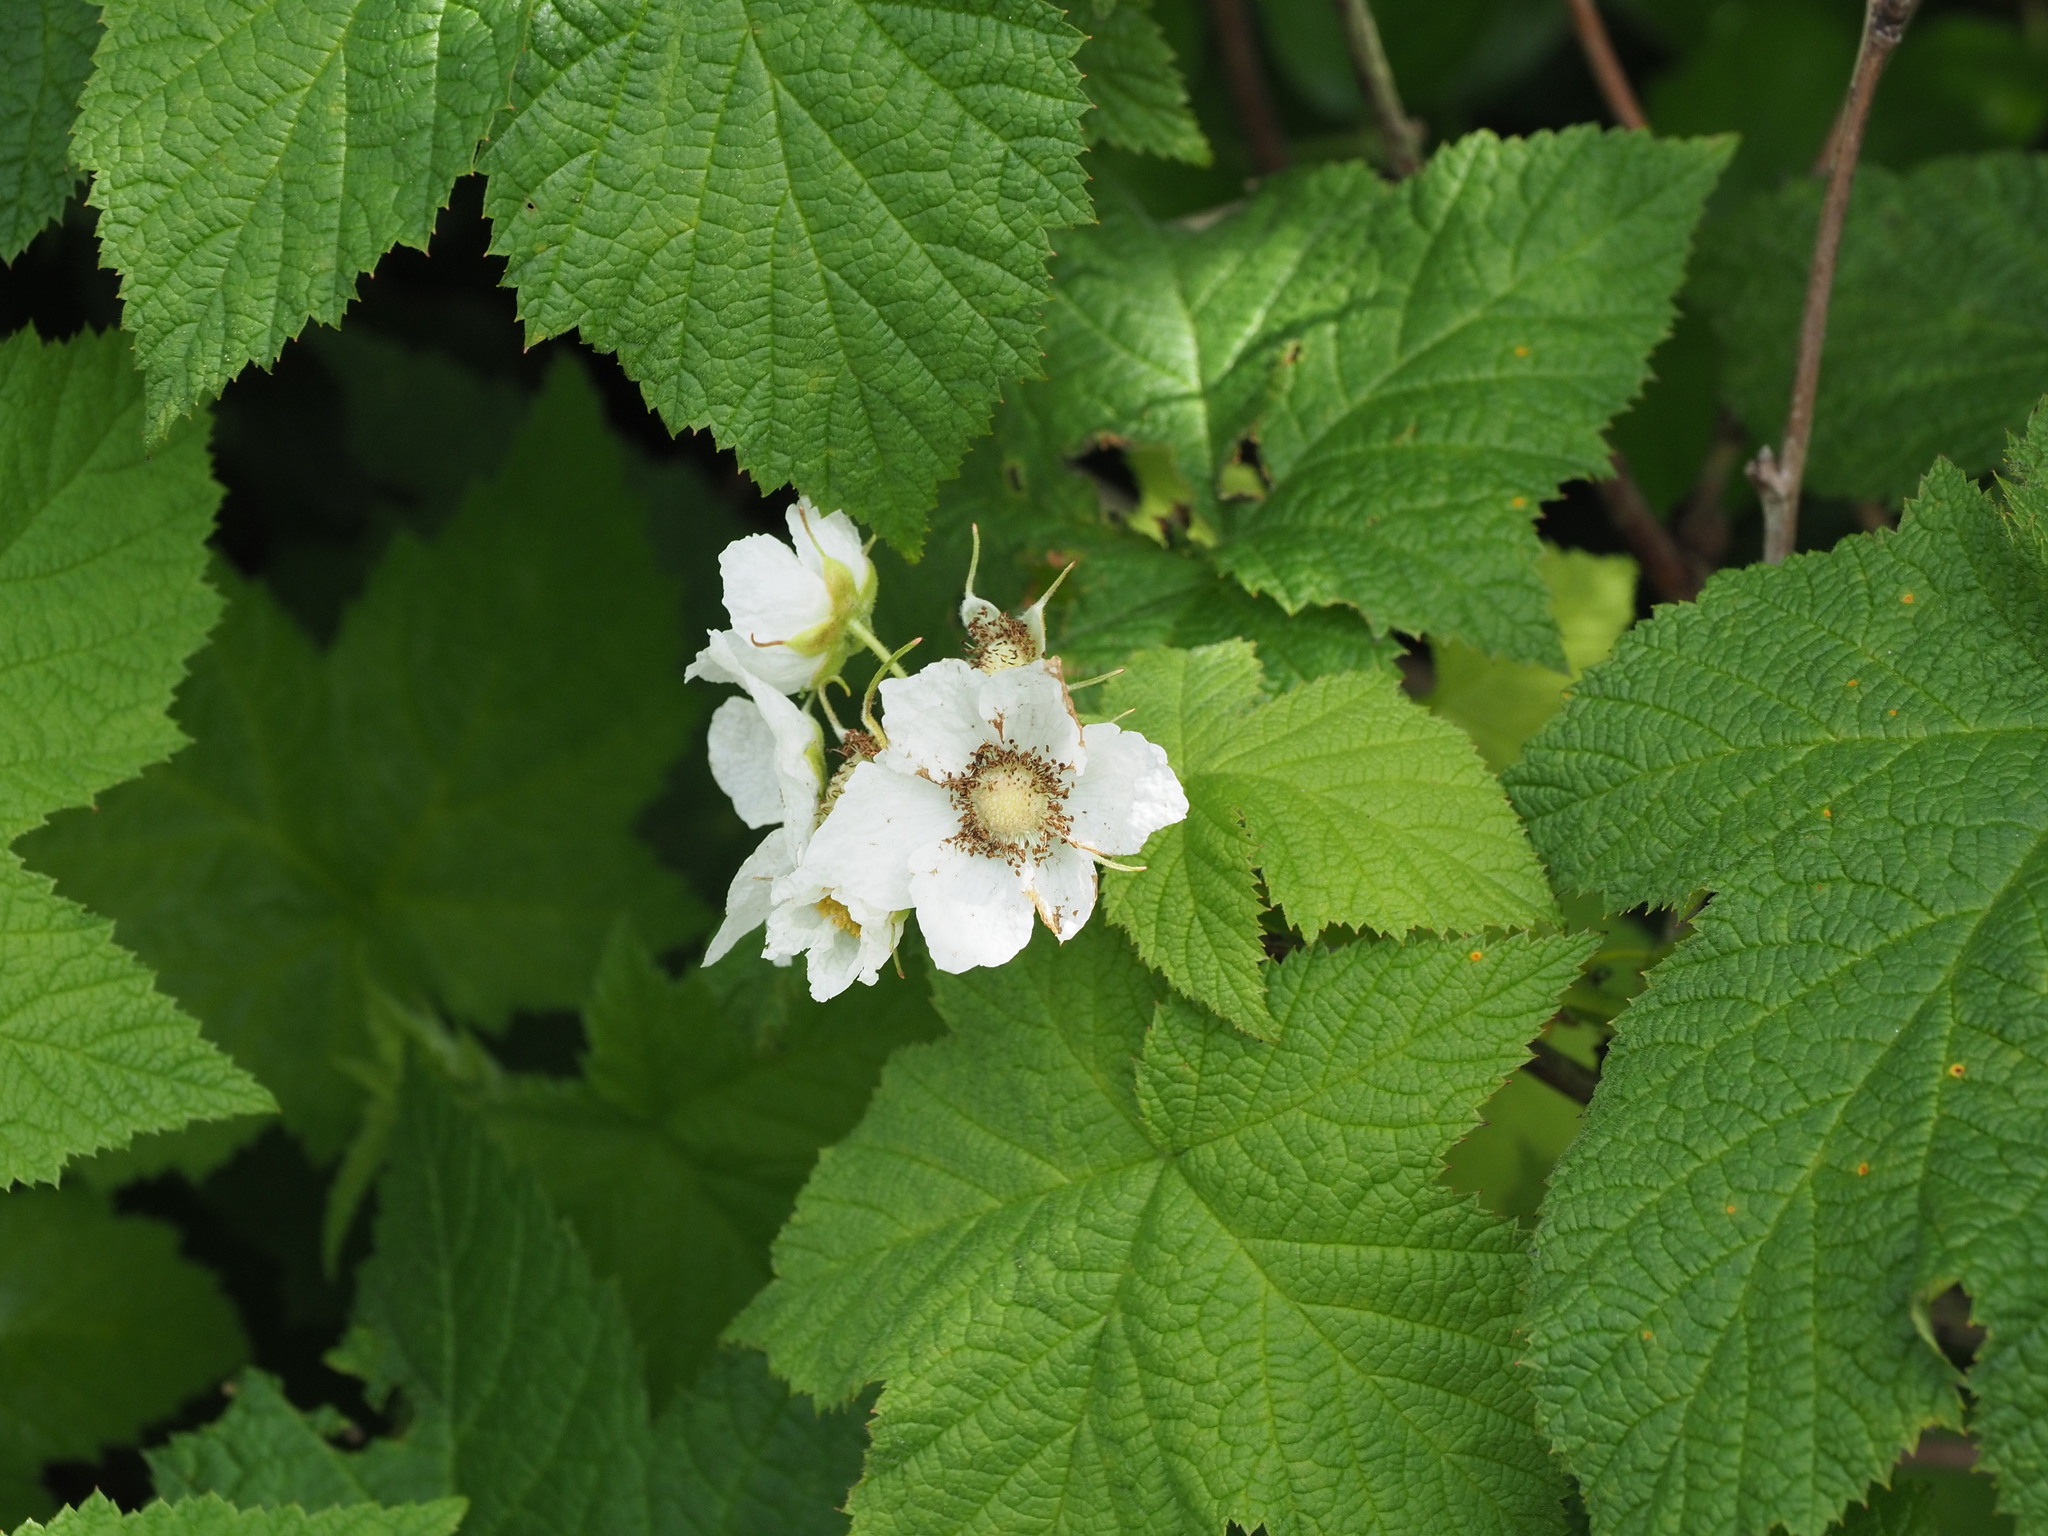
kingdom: Plantae
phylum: Tracheophyta
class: Magnoliopsida
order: Rosales
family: Rosaceae
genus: Rubus
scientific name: Rubus parviflorus
